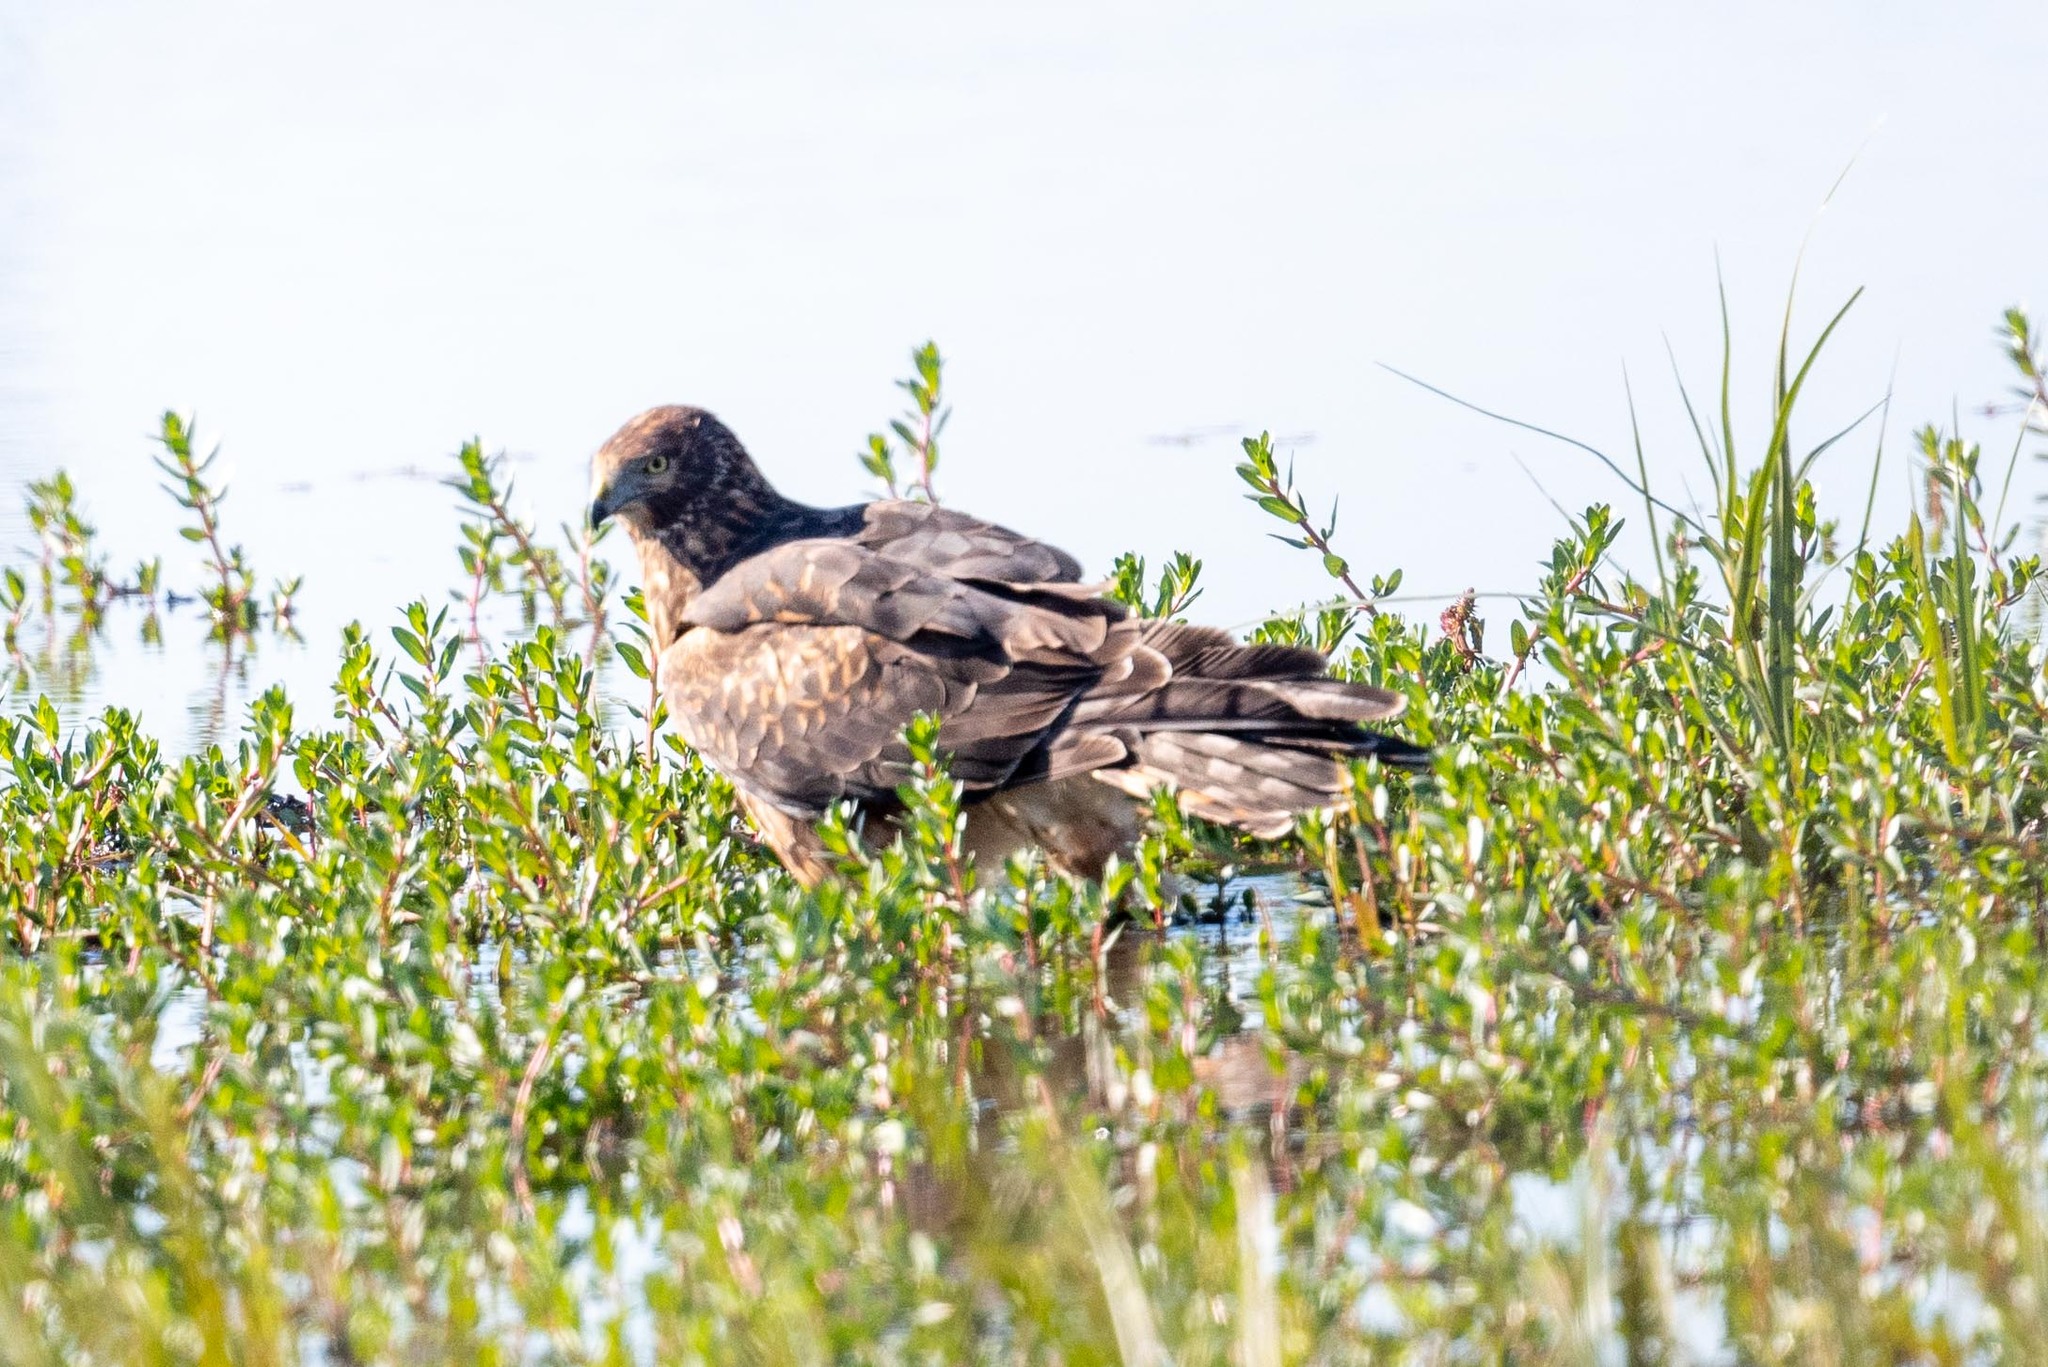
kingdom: Animalia
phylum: Chordata
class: Aves
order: Accipitriformes
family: Accipitridae
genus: Circus
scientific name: Circus cyaneus
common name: Hen harrier
